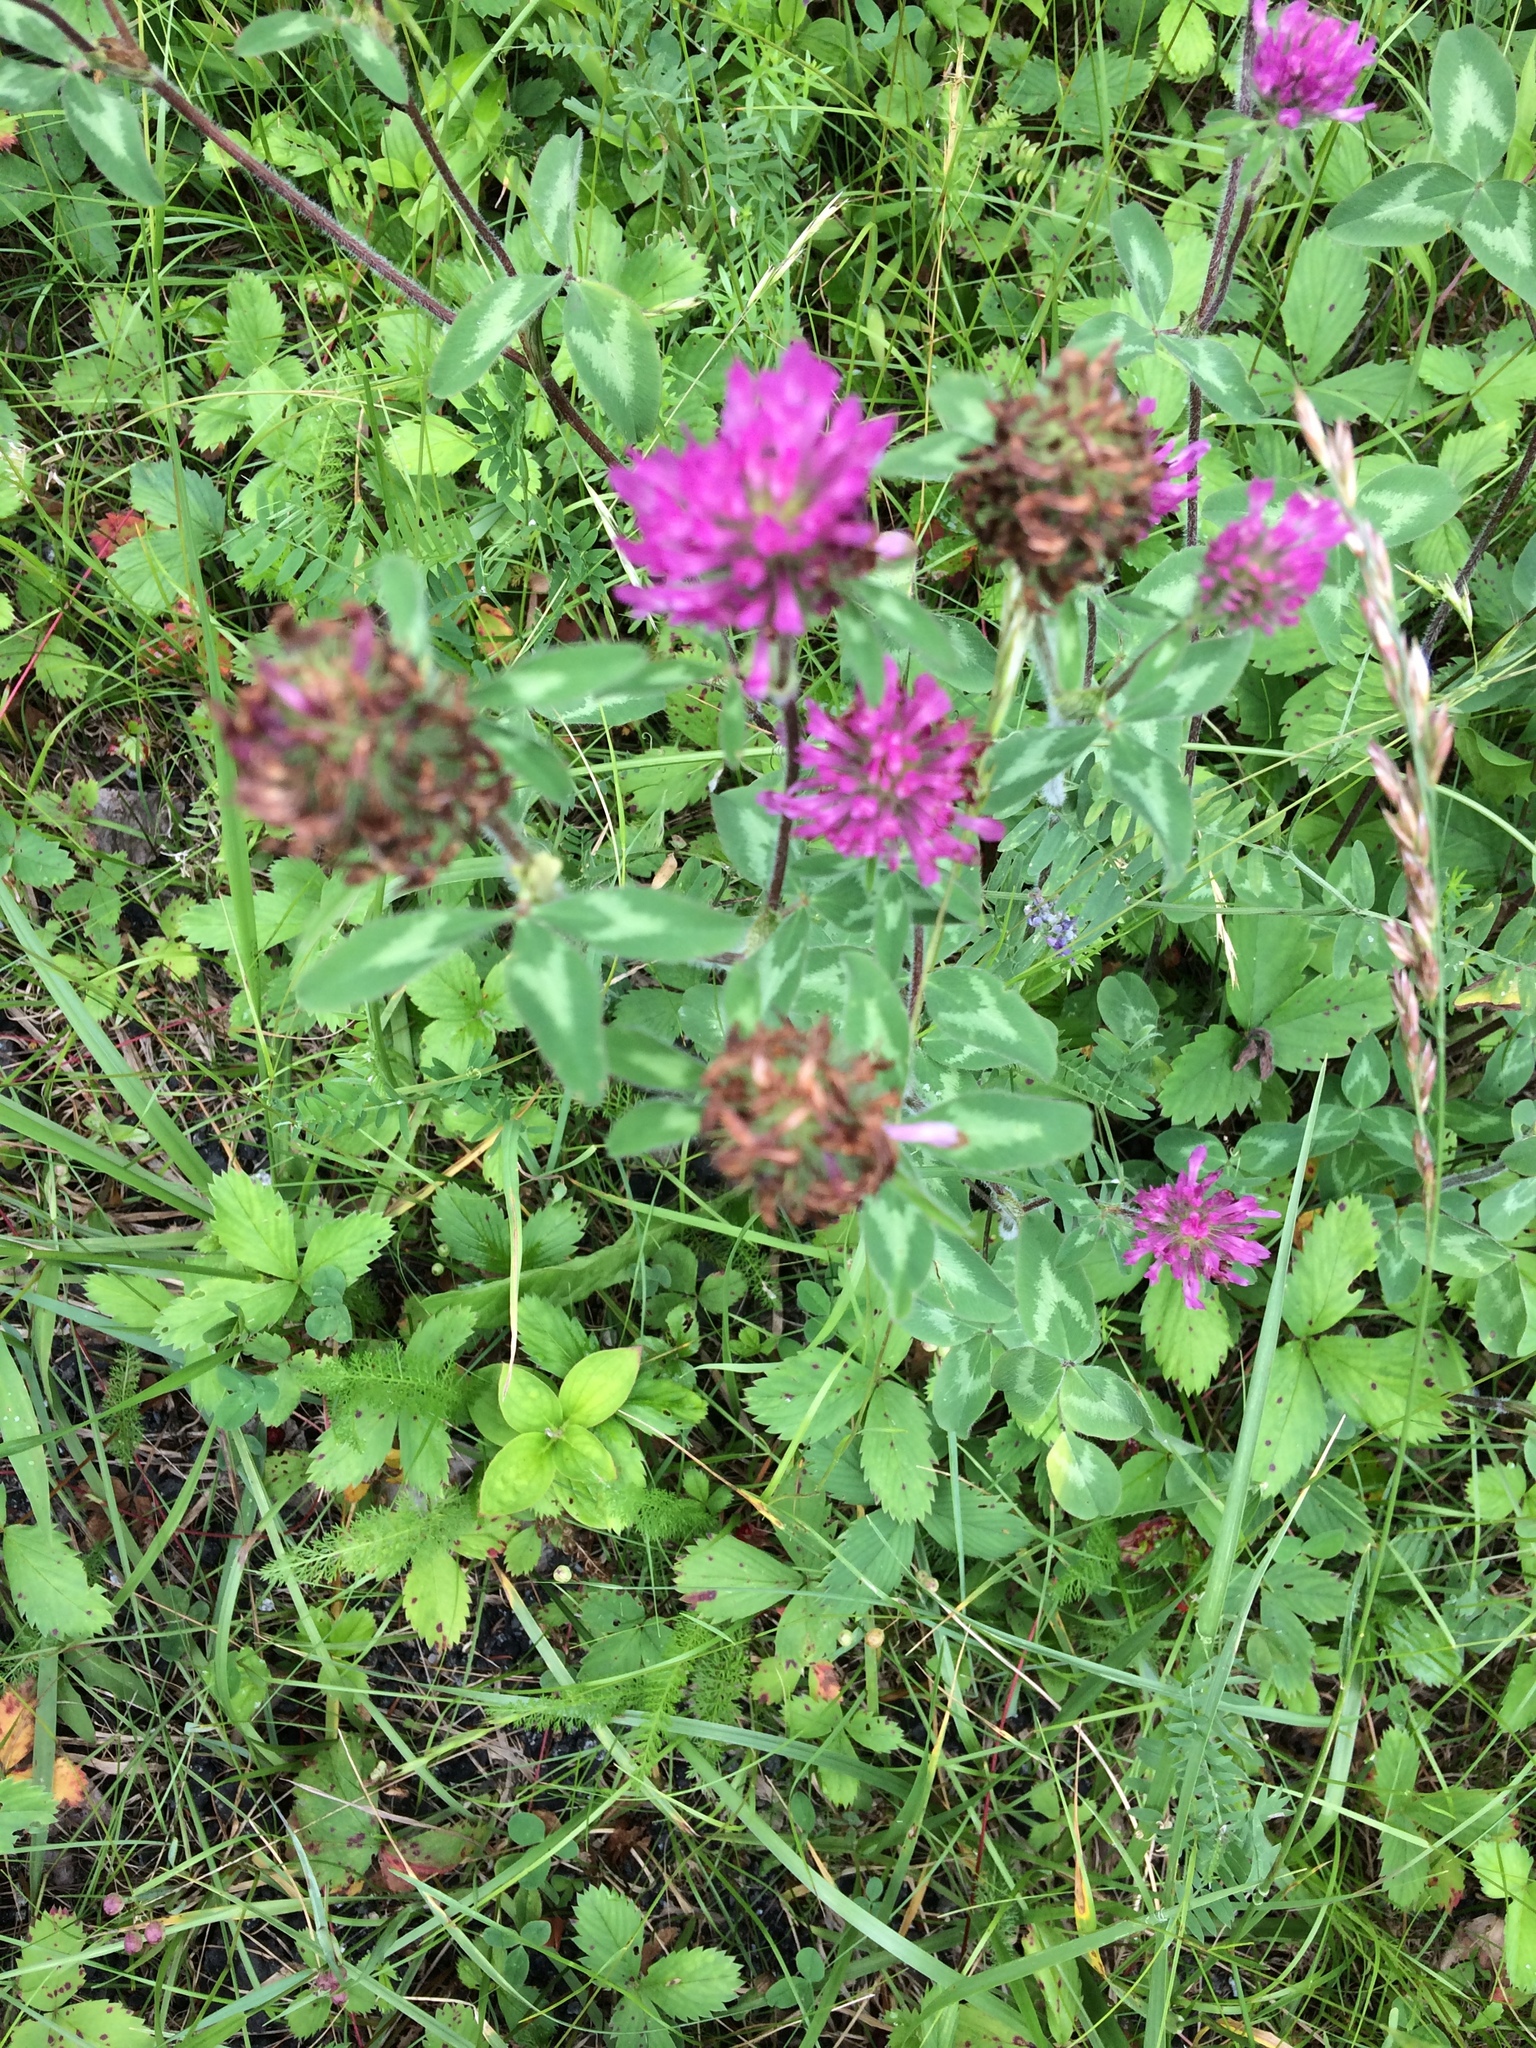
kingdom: Plantae
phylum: Tracheophyta
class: Magnoliopsida
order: Fabales
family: Fabaceae
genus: Trifolium
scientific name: Trifolium pratense
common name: Red clover
